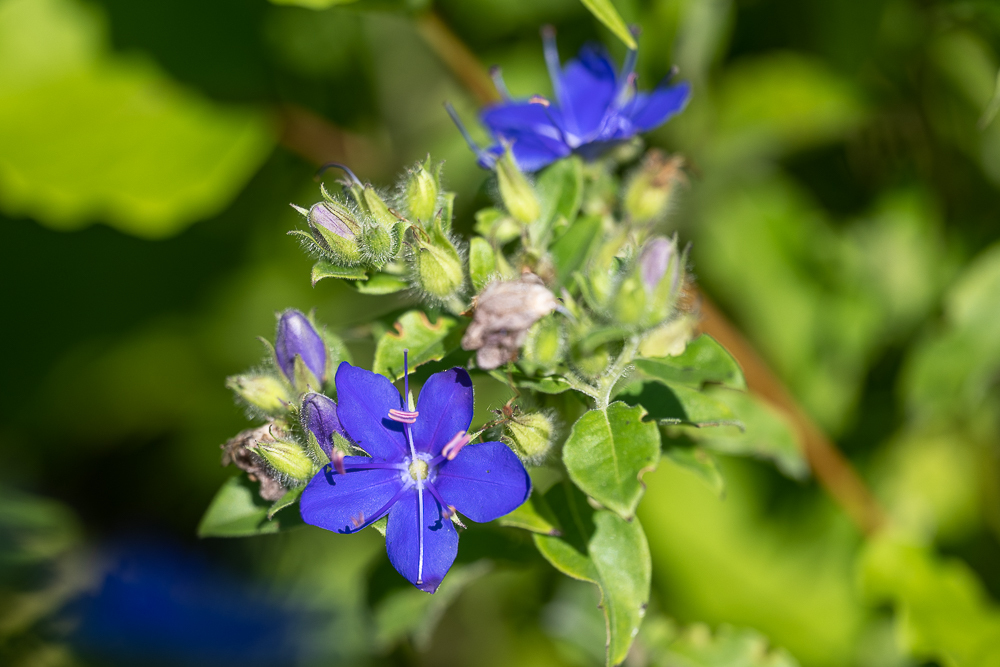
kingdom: Plantae
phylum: Tracheophyta
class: Magnoliopsida
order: Solanales
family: Hydroleaceae
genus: Hydrolea
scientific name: Hydrolea ovata
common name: Ovate false fiddleleaf
